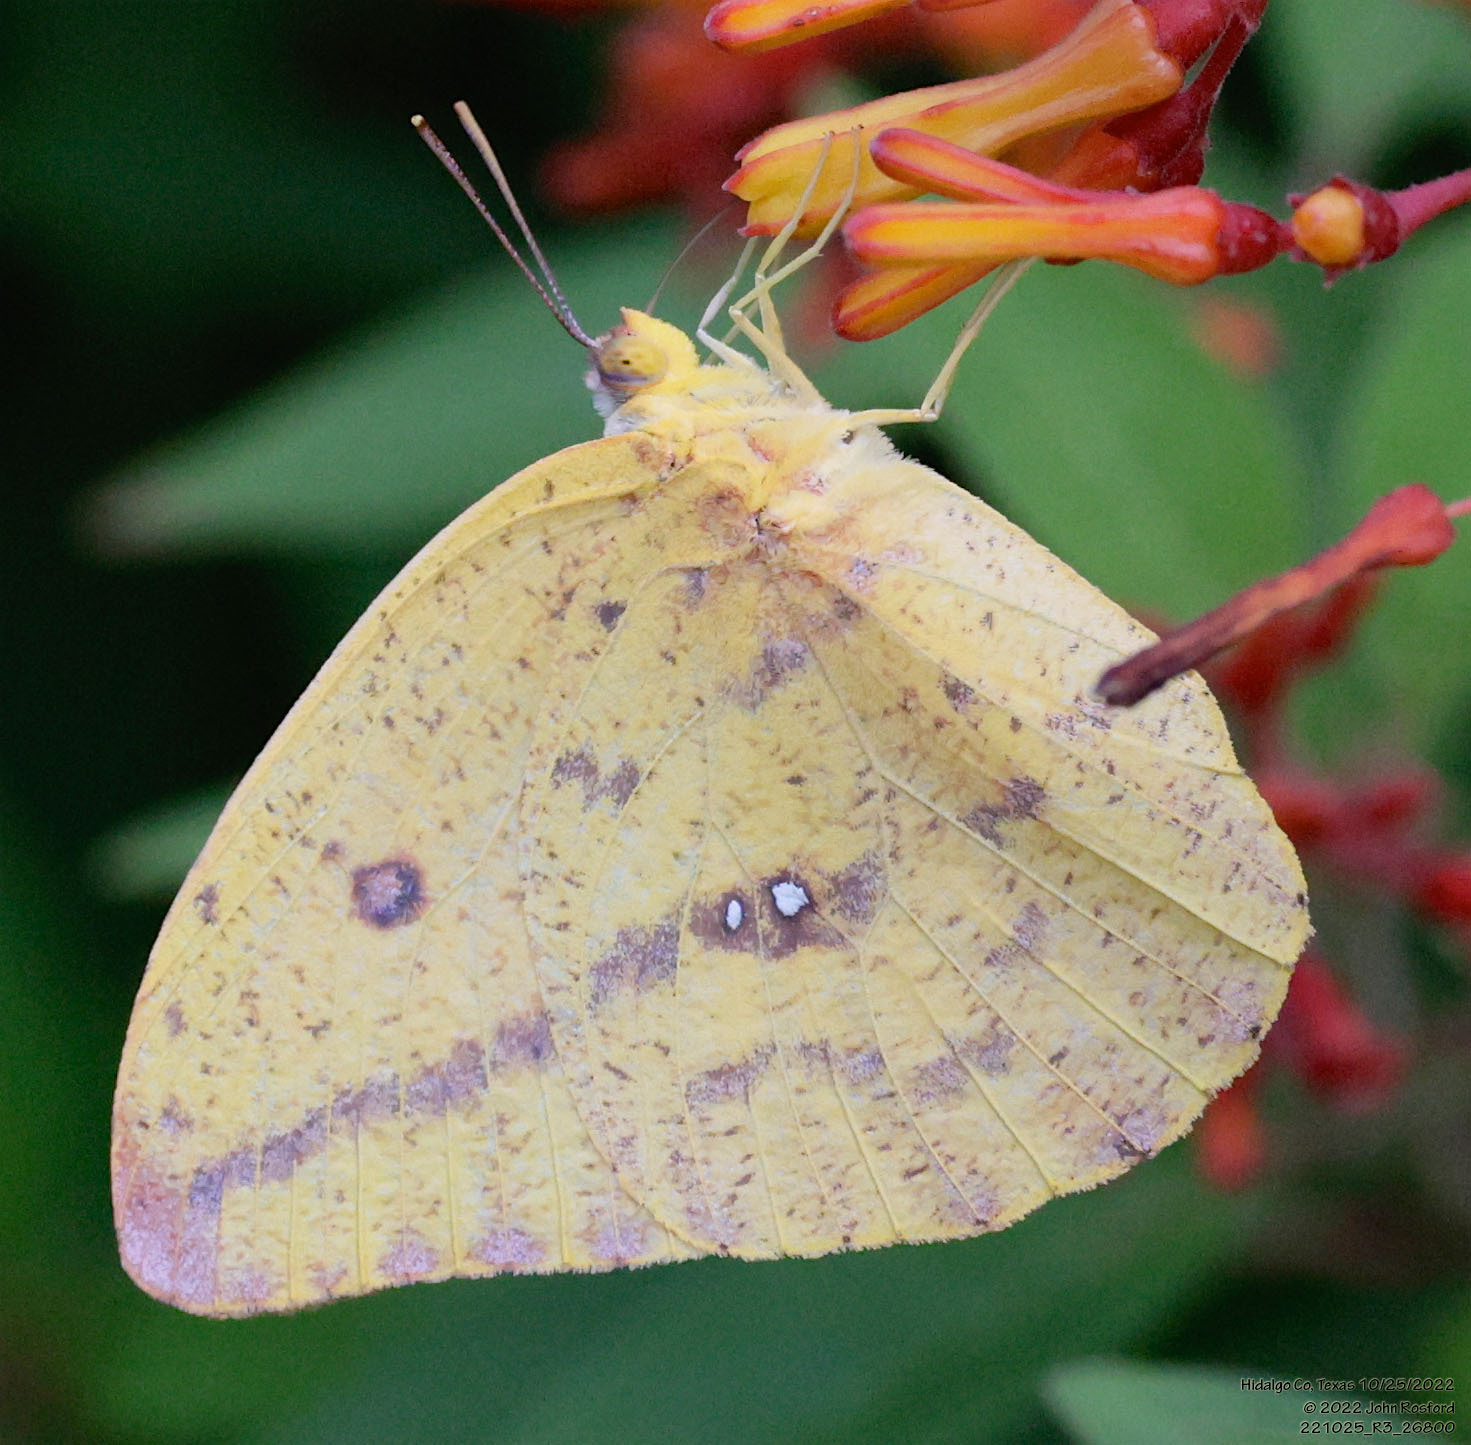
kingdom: Animalia
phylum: Arthropoda
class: Insecta
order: Lepidoptera
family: Pieridae
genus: Phoebis
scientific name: Phoebis agarithe
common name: Large orange sulphur
